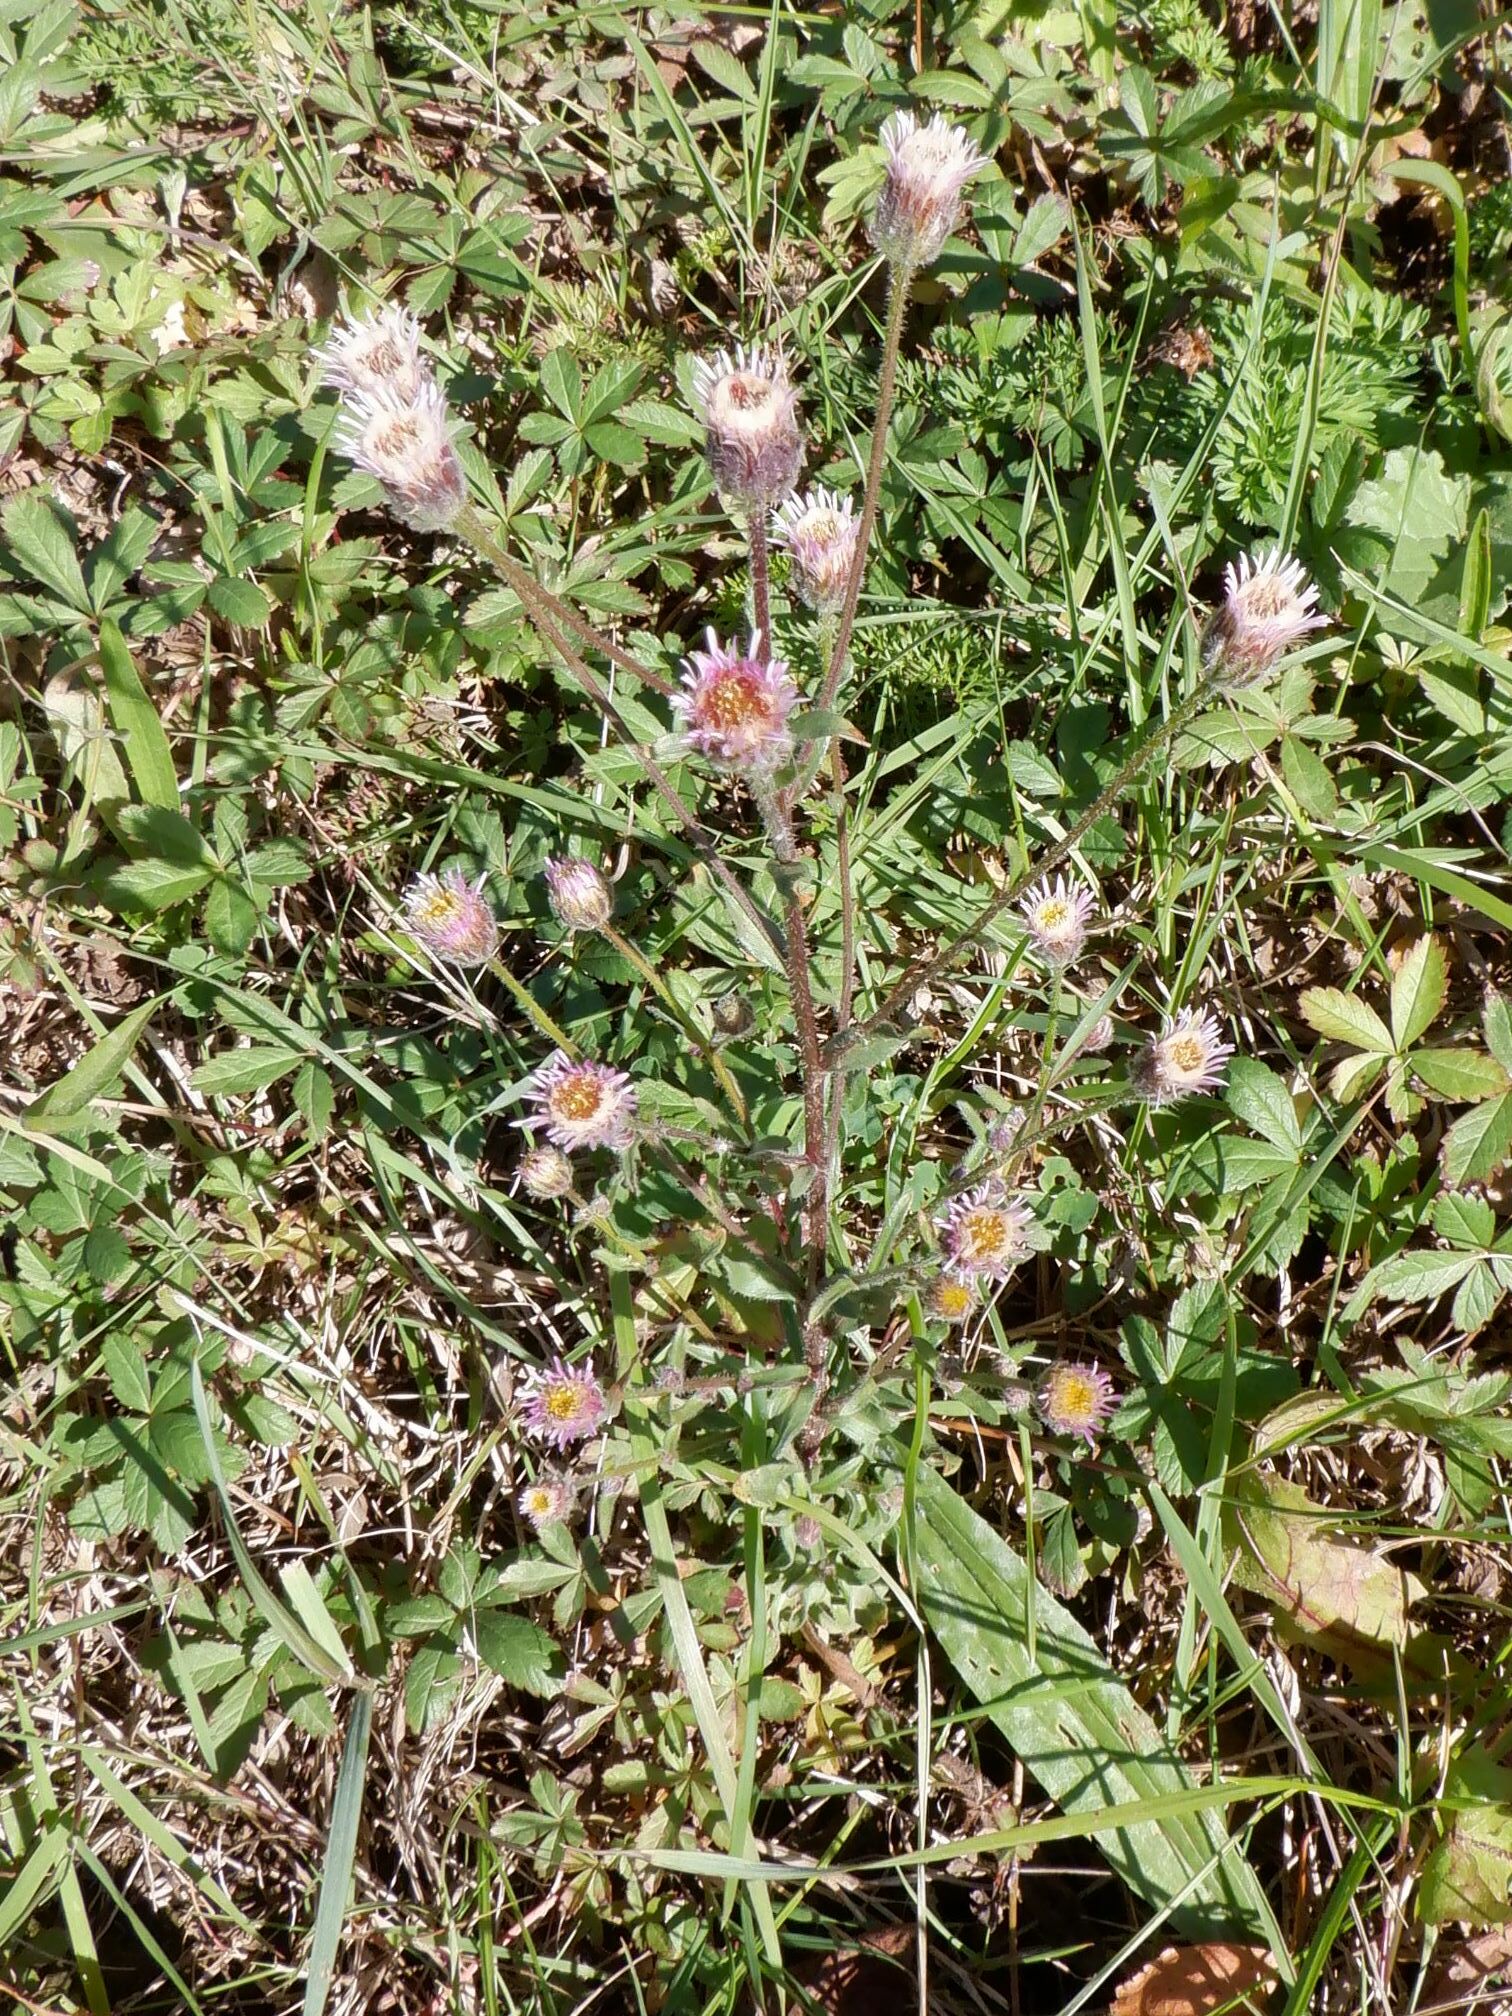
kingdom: Plantae
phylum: Tracheophyta
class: Magnoliopsida
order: Asterales
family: Asteraceae
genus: Erigeron
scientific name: Erigeron acris
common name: Blue fleabane
